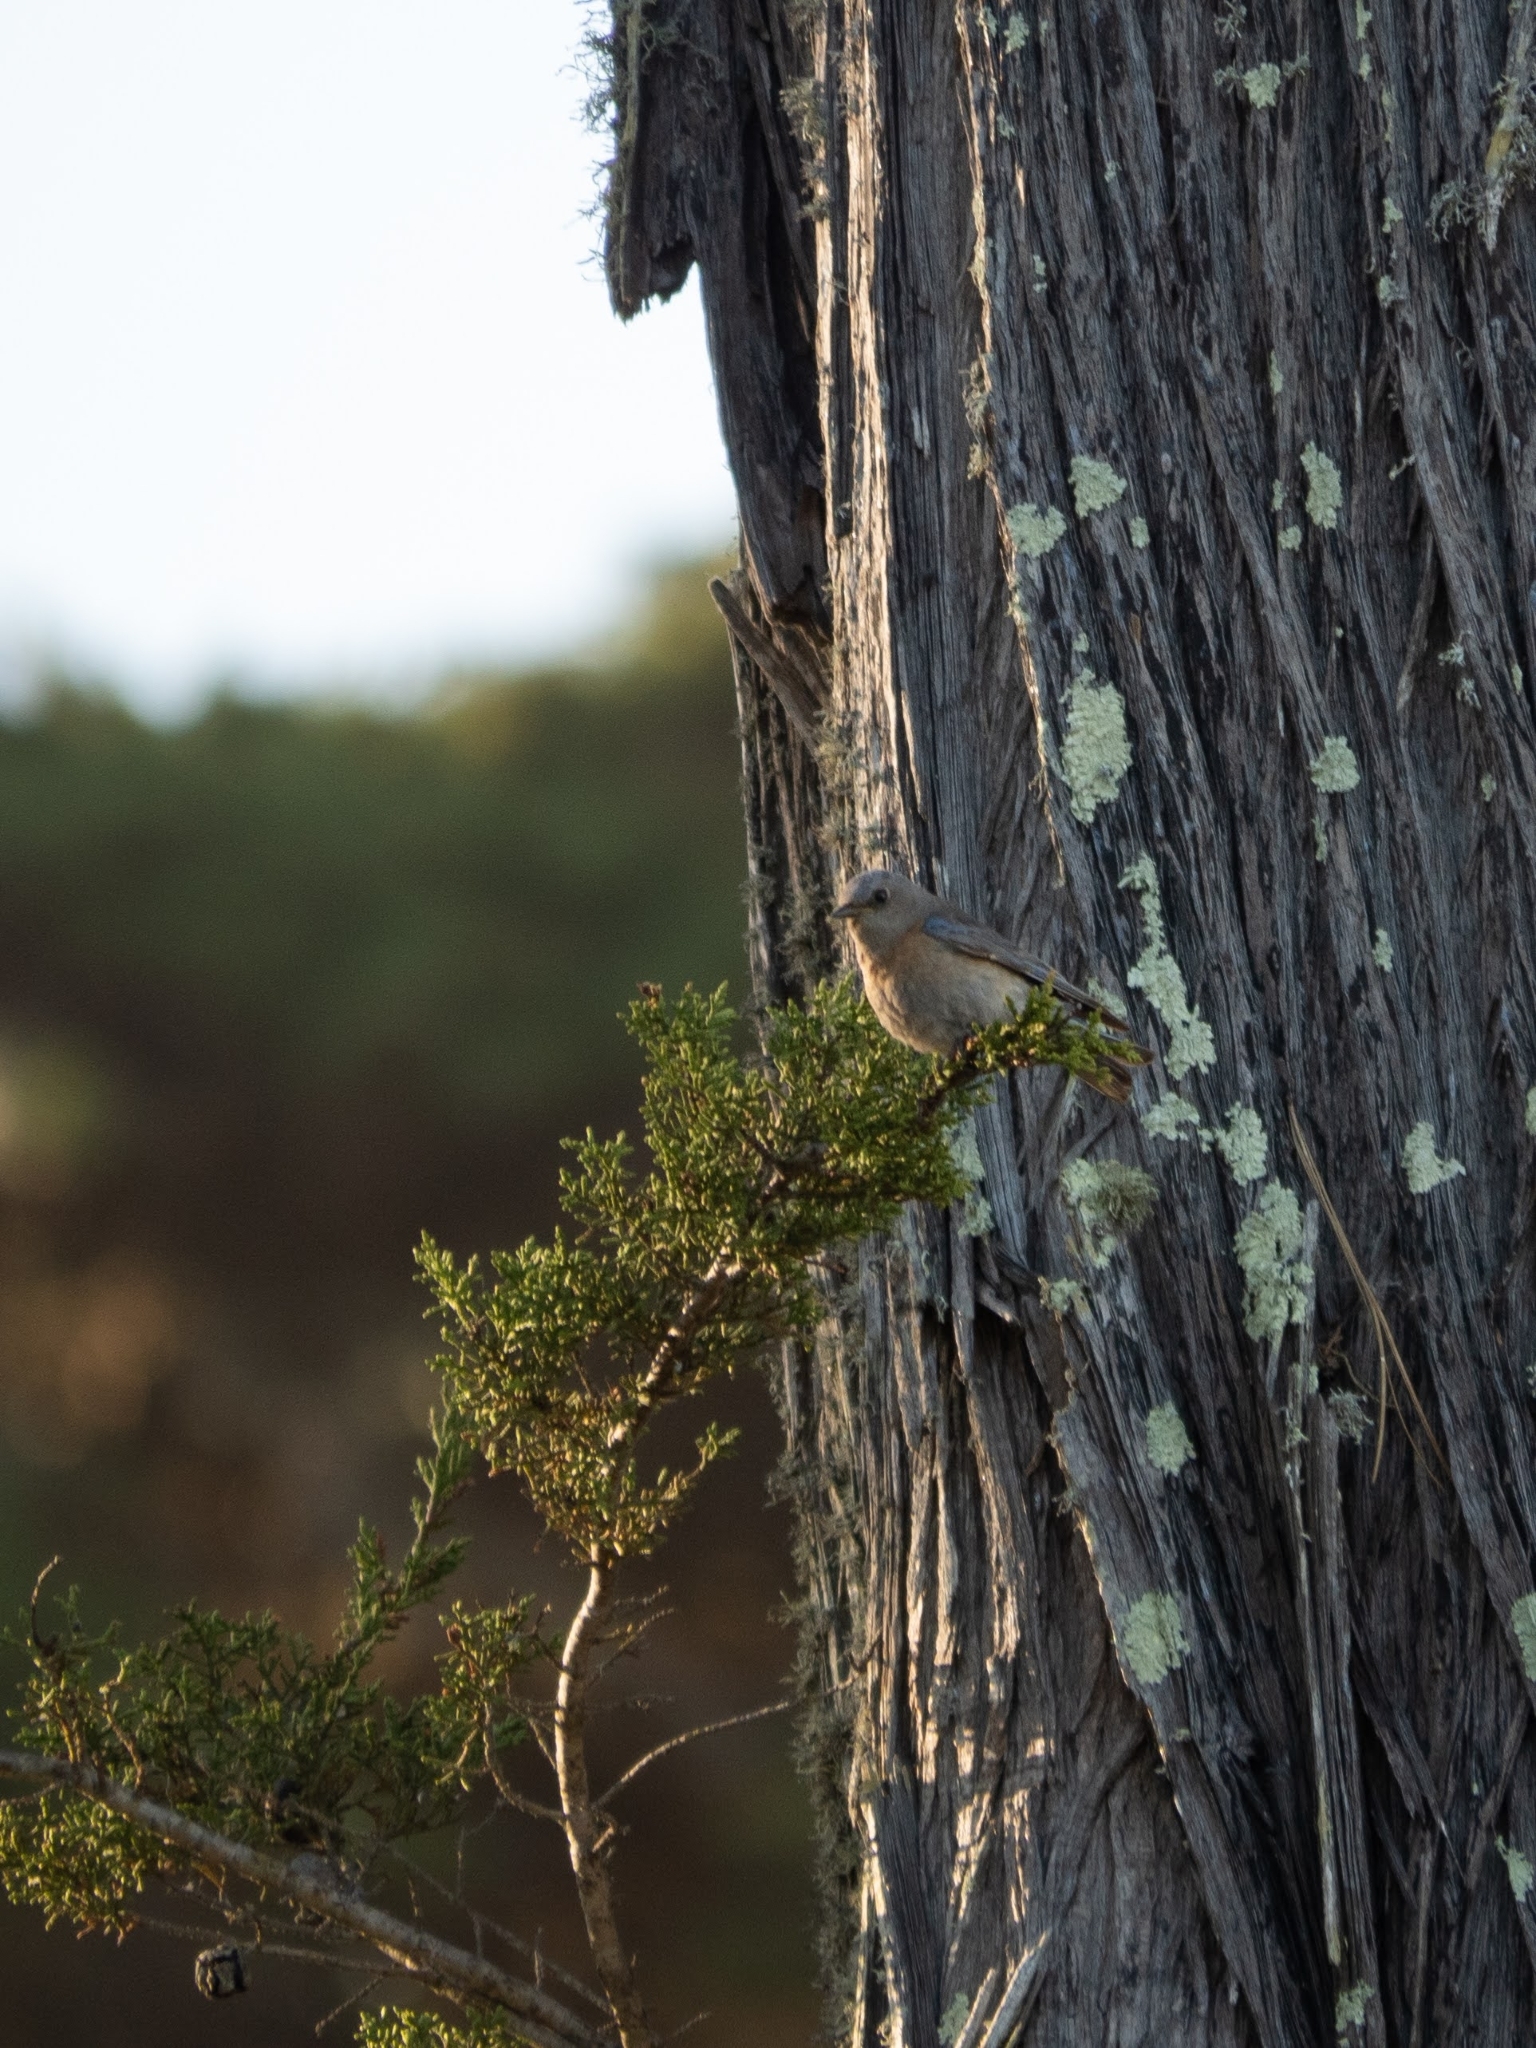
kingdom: Animalia
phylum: Chordata
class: Aves
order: Passeriformes
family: Turdidae
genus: Sialia
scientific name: Sialia mexicana
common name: Western bluebird
